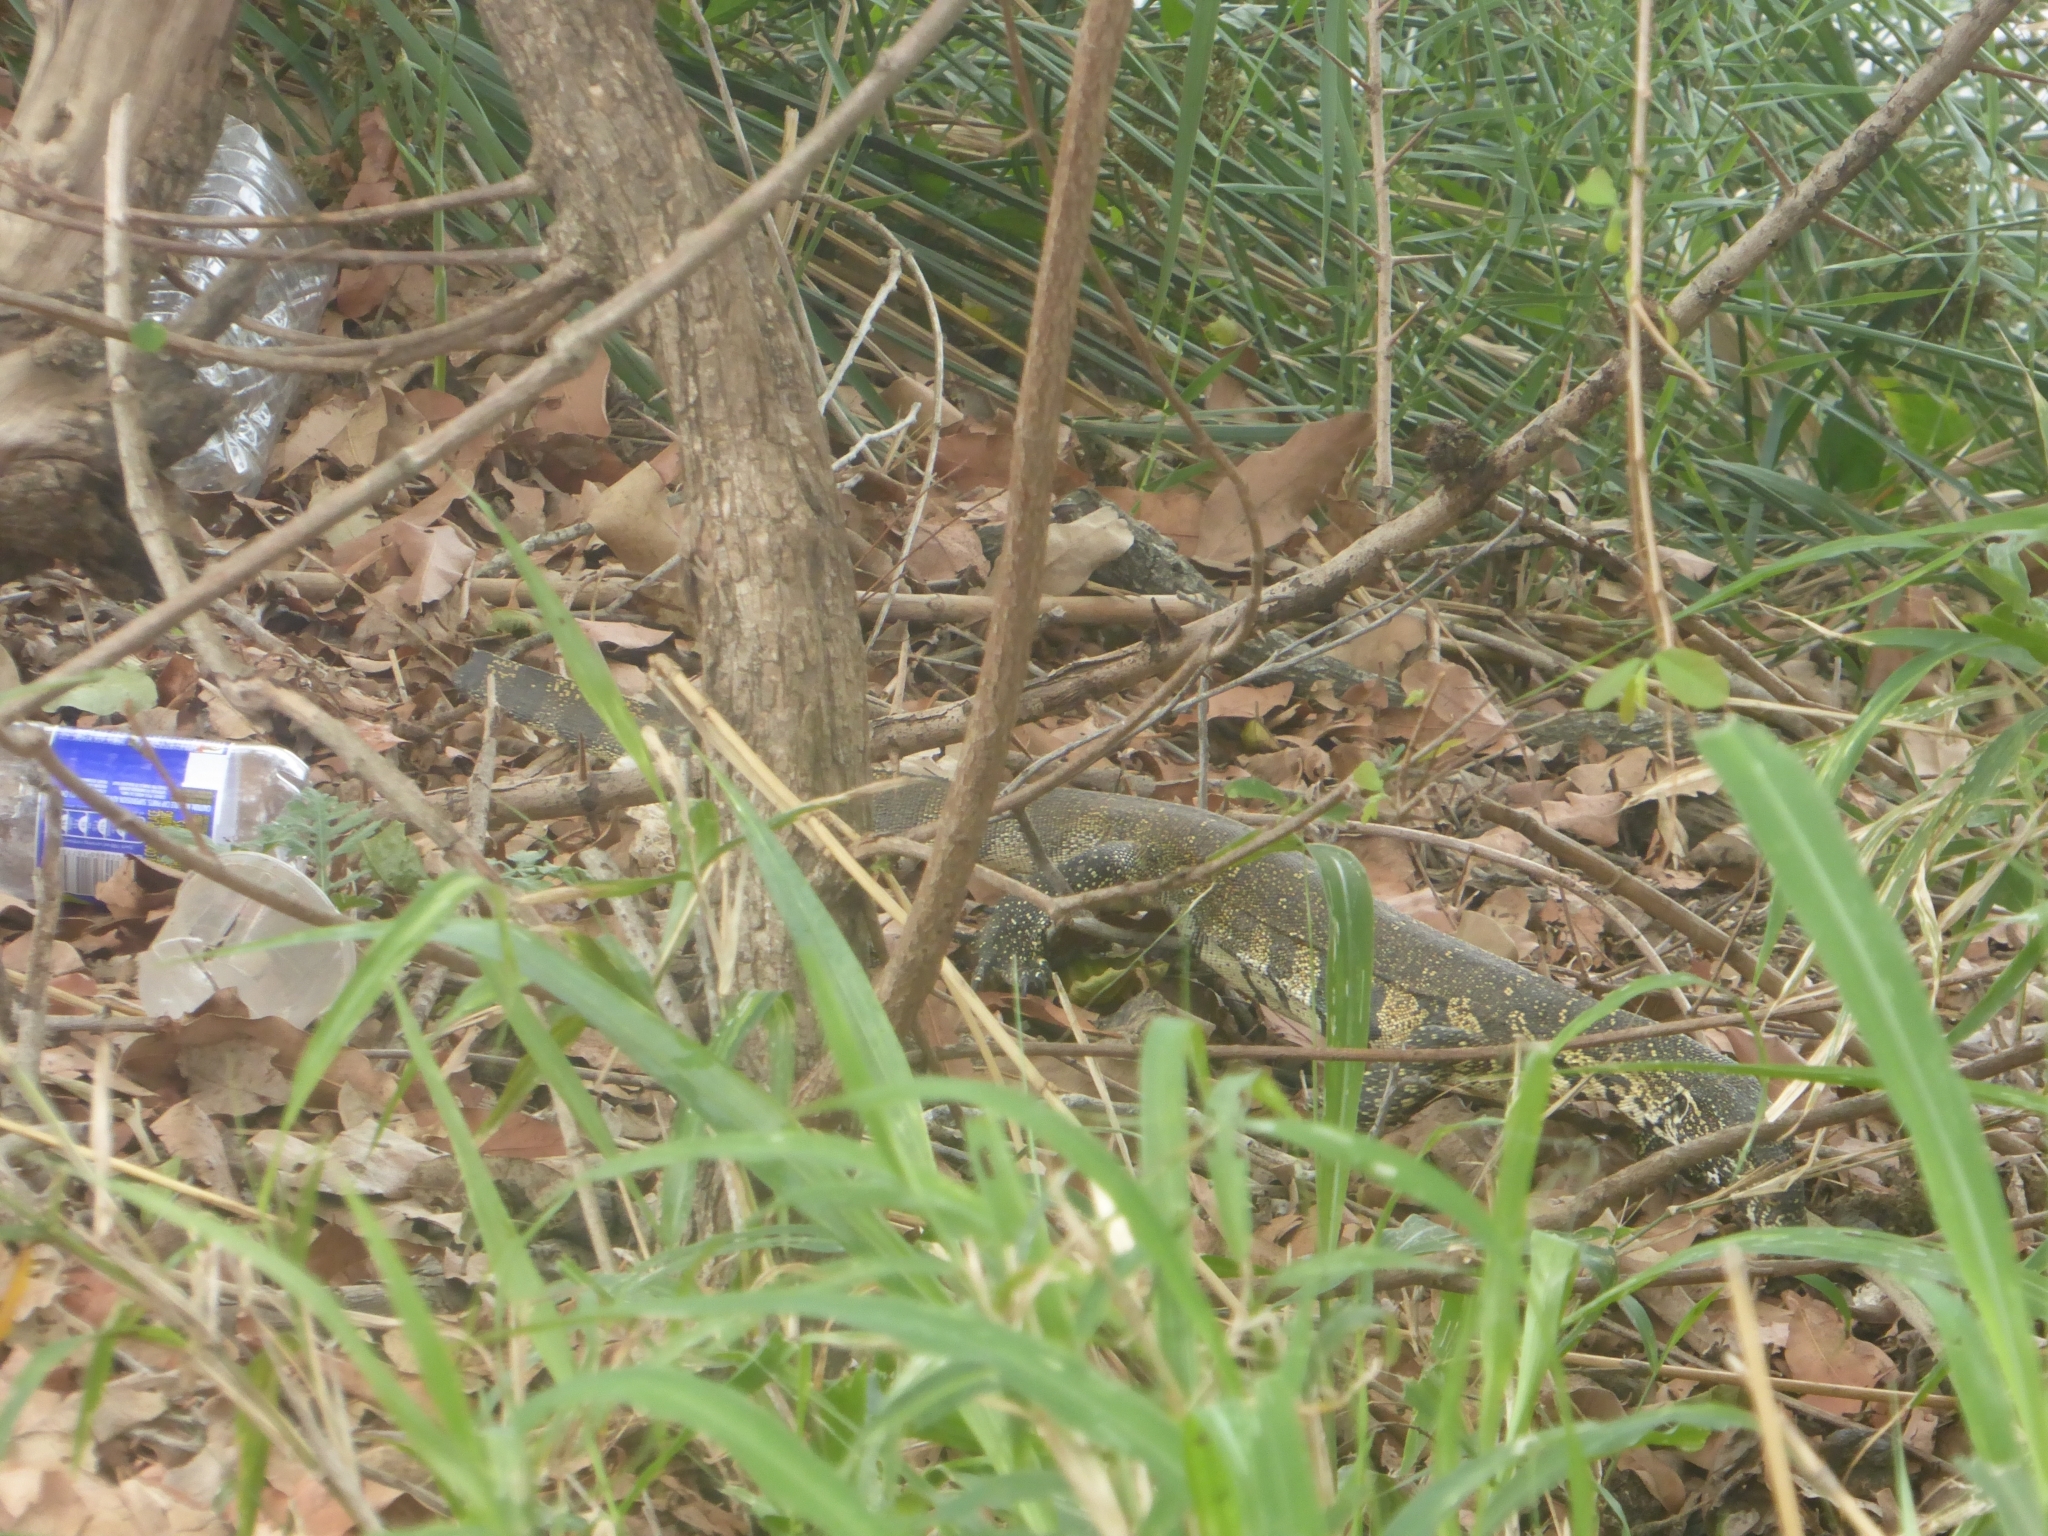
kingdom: Animalia
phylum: Chordata
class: Squamata
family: Varanidae
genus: Varanus
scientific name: Varanus niloticus
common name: Nile monitor
